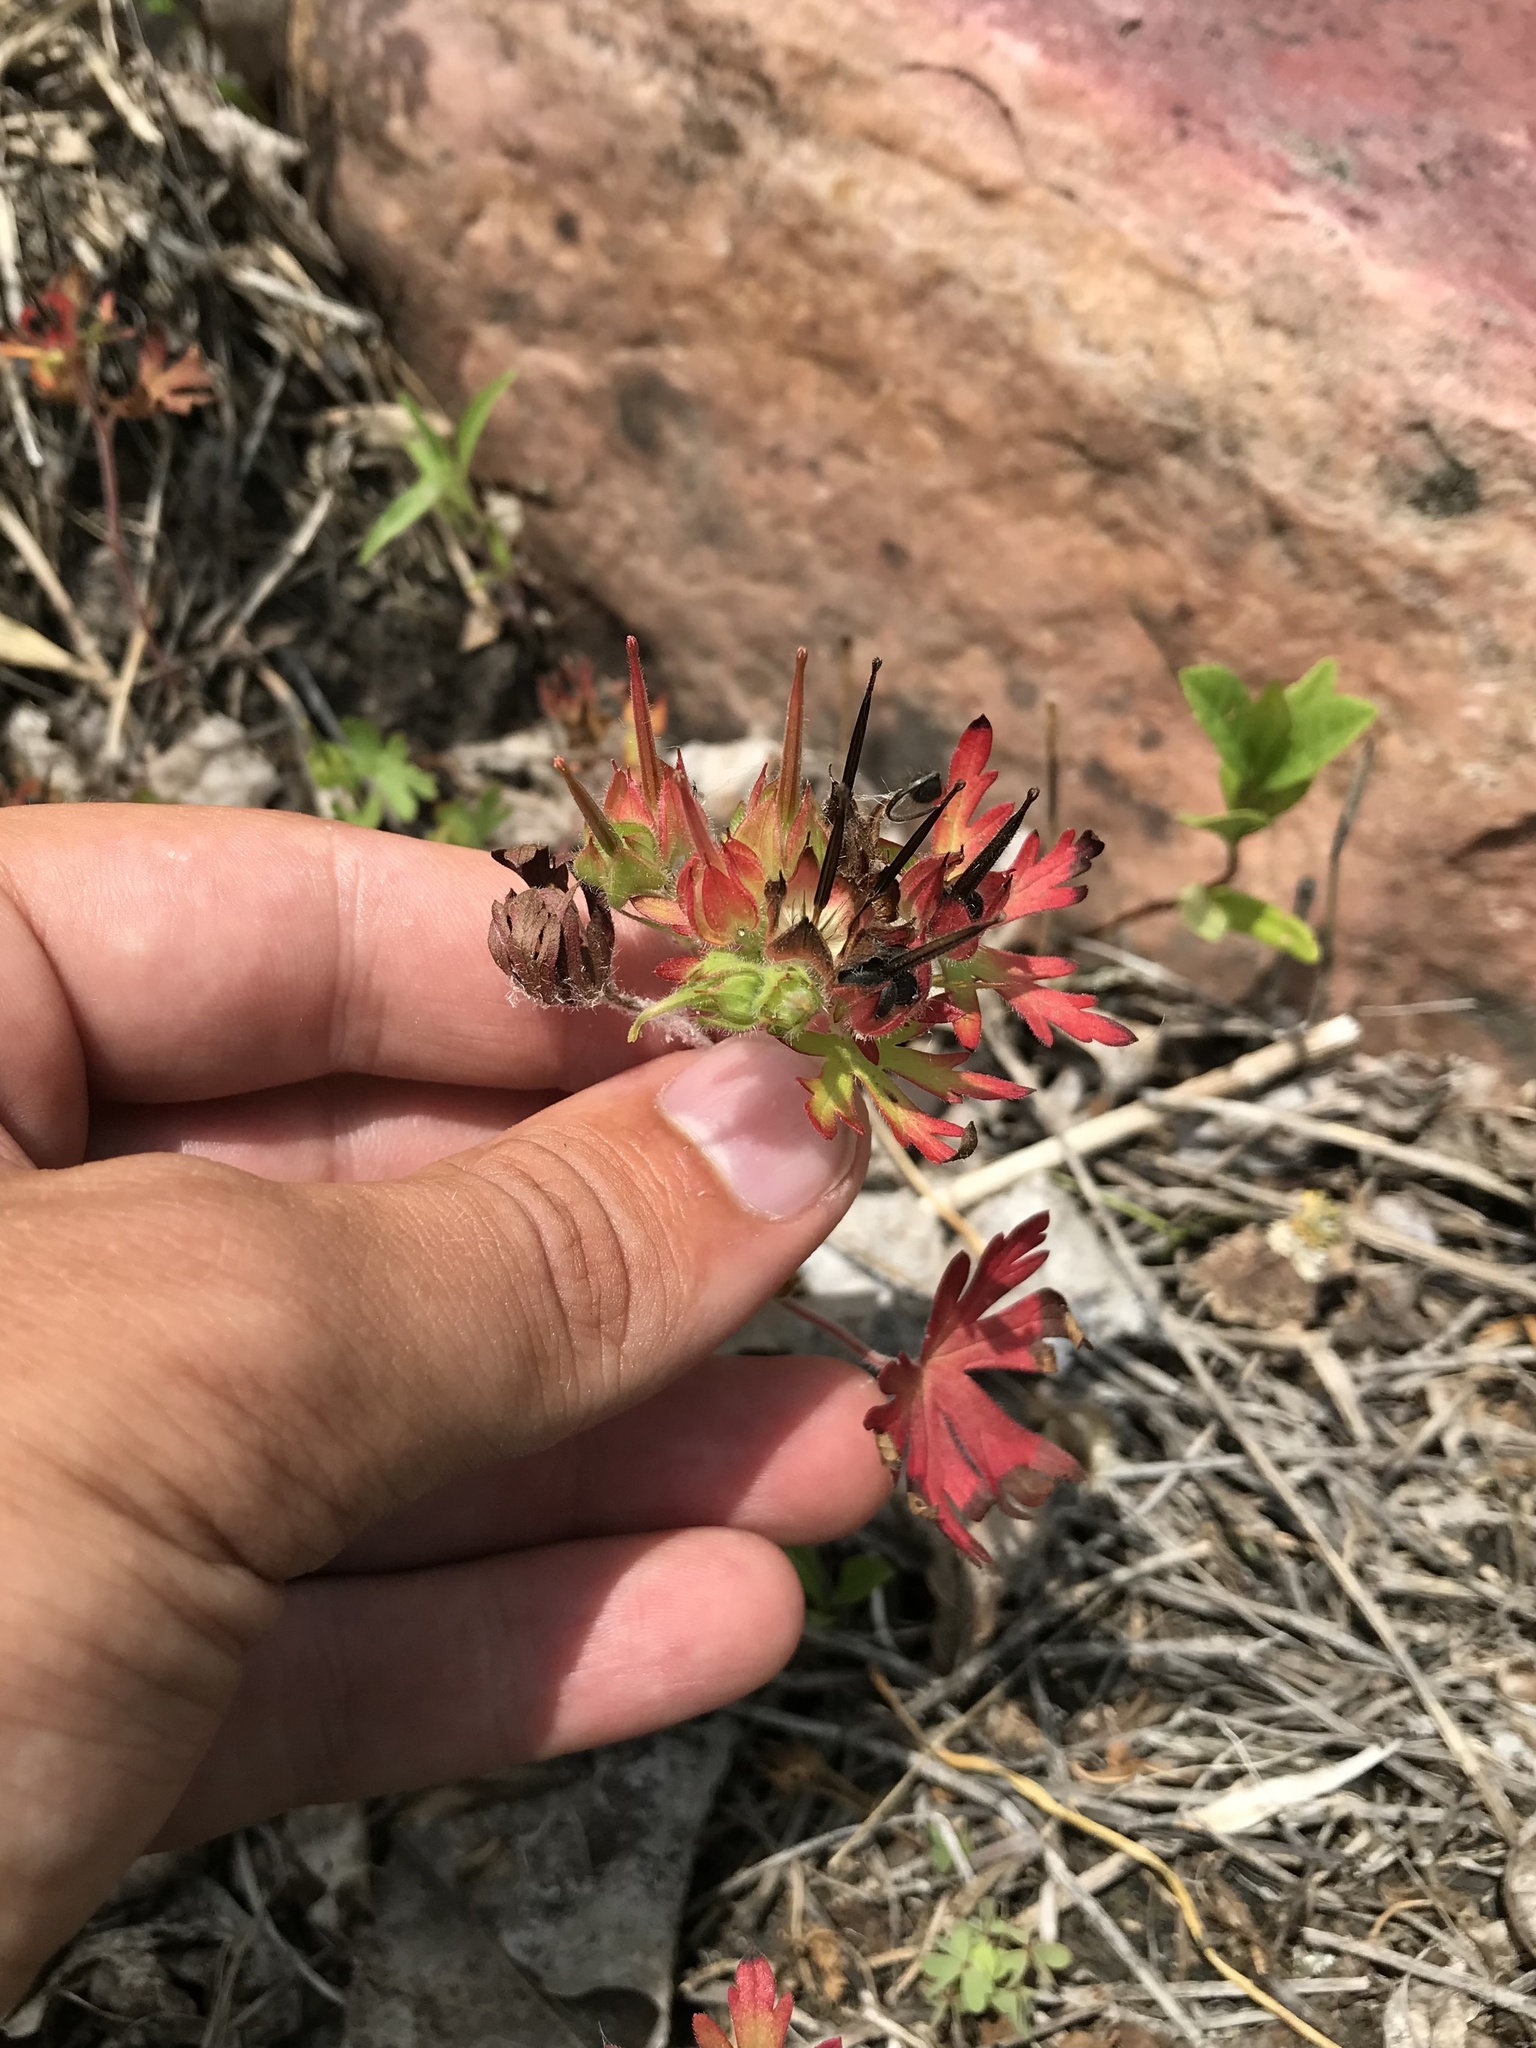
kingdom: Plantae
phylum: Tracheophyta
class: Magnoliopsida
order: Geraniales
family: Geraniaceae
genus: Geranium
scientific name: Geranium carolinianum
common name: Carolina crane's-bill
